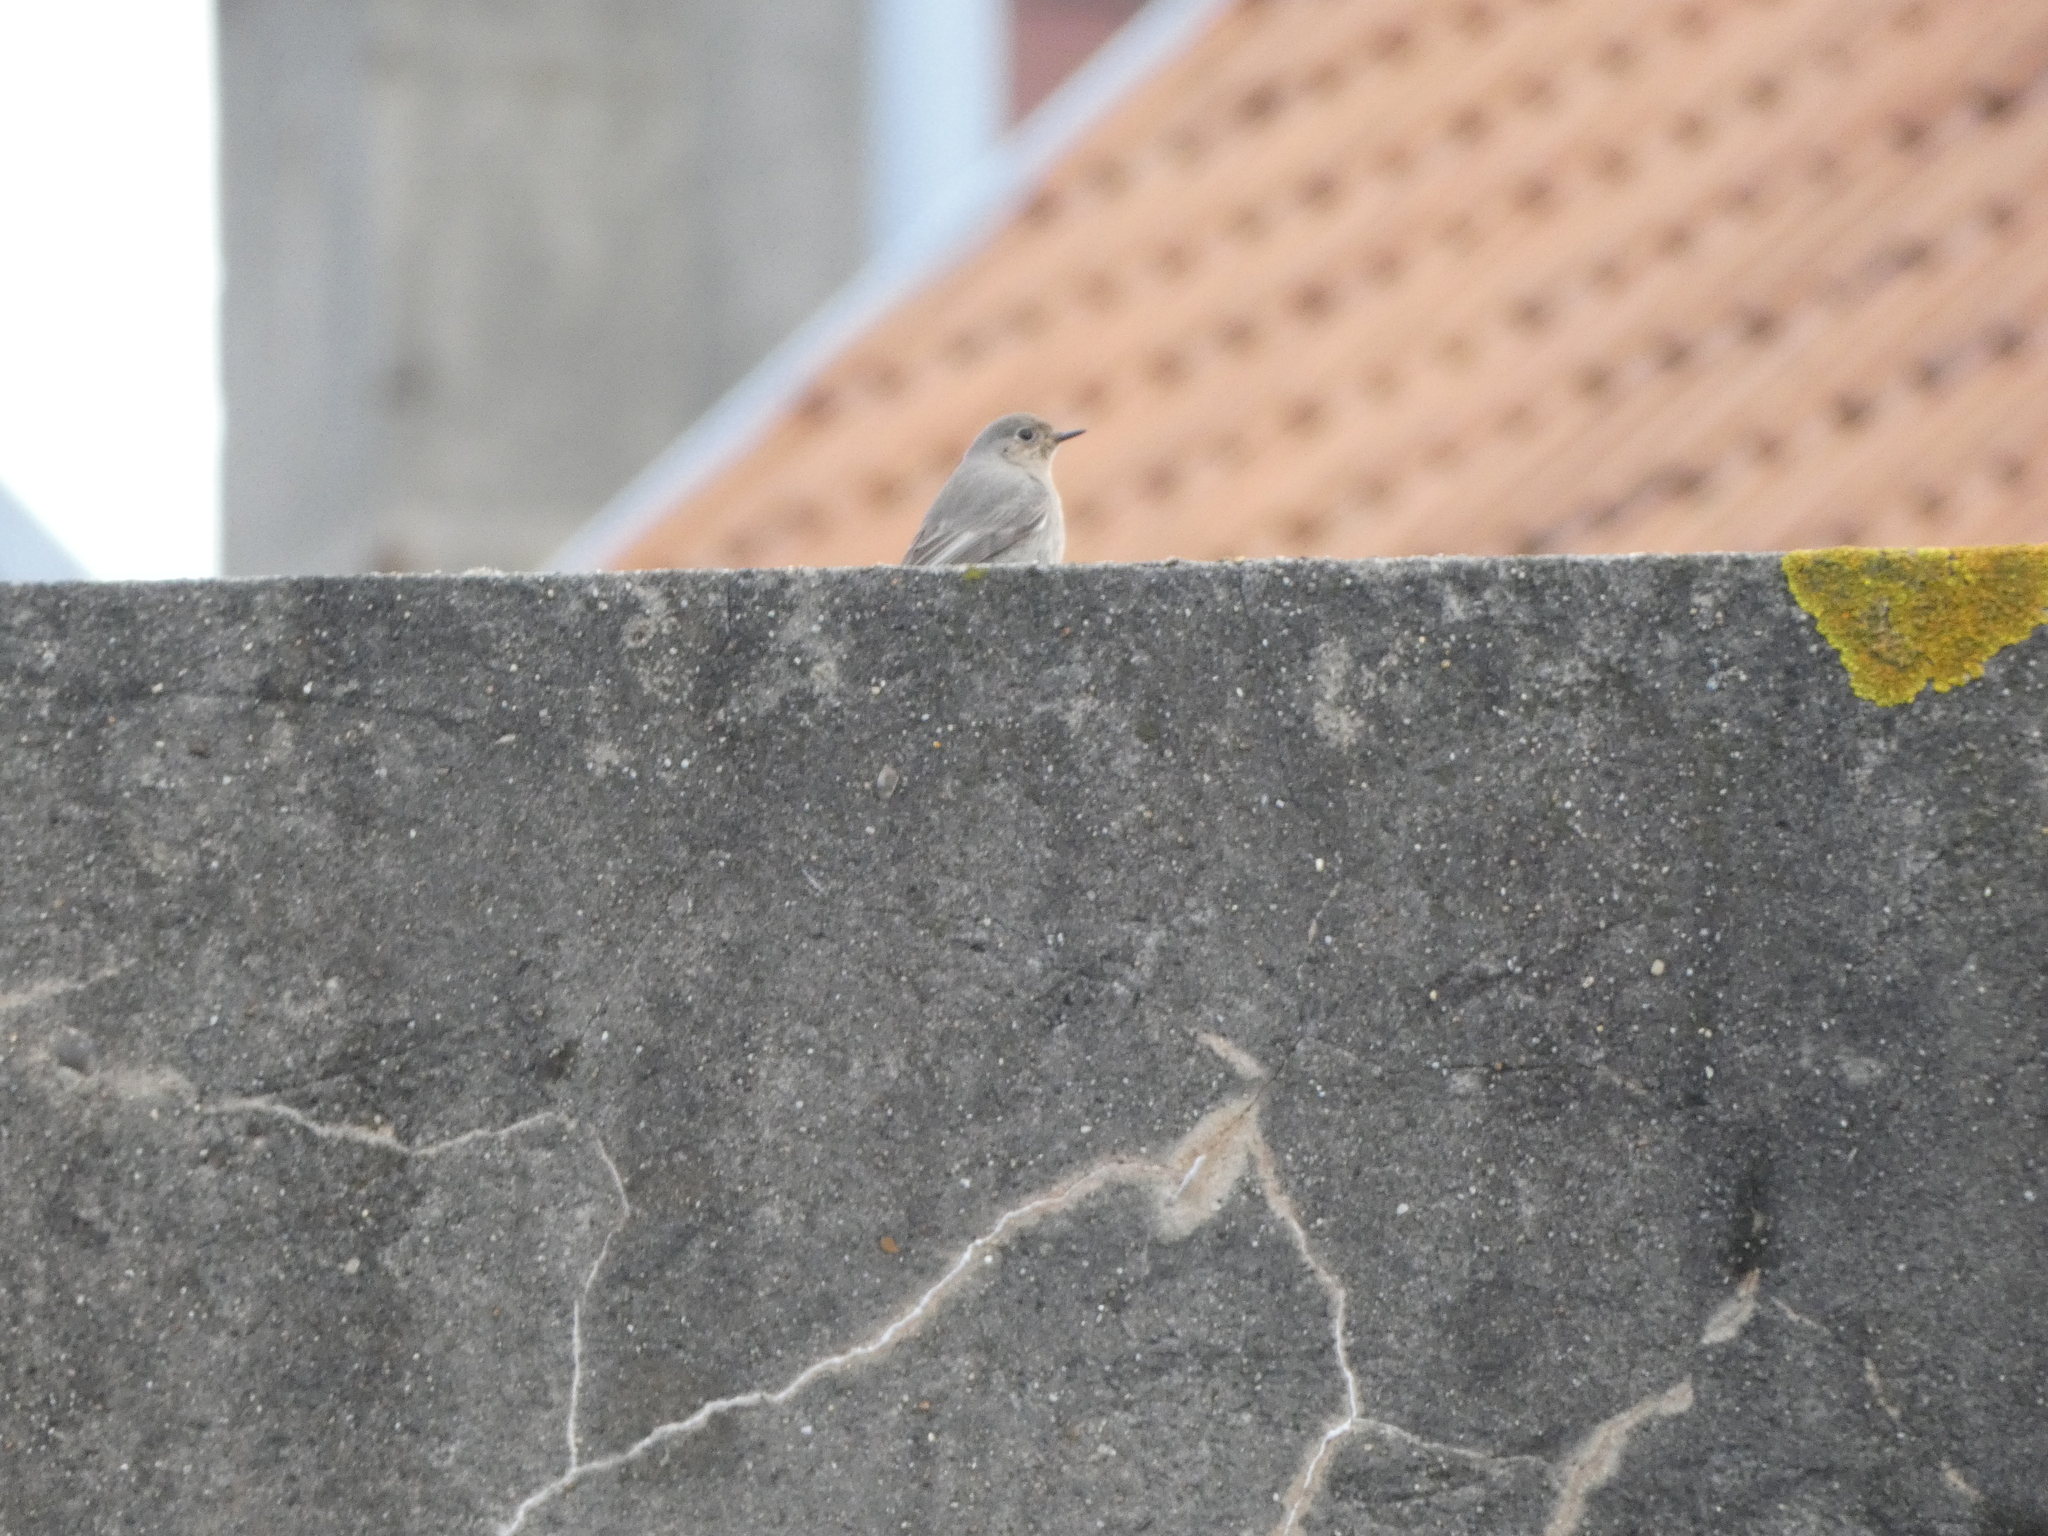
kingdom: Animalia
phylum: Chordata
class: Aves
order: Passeriformes
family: Muscicapidae
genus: Phoenicurus
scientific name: Phoenicurus ochruros
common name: Black redstart
